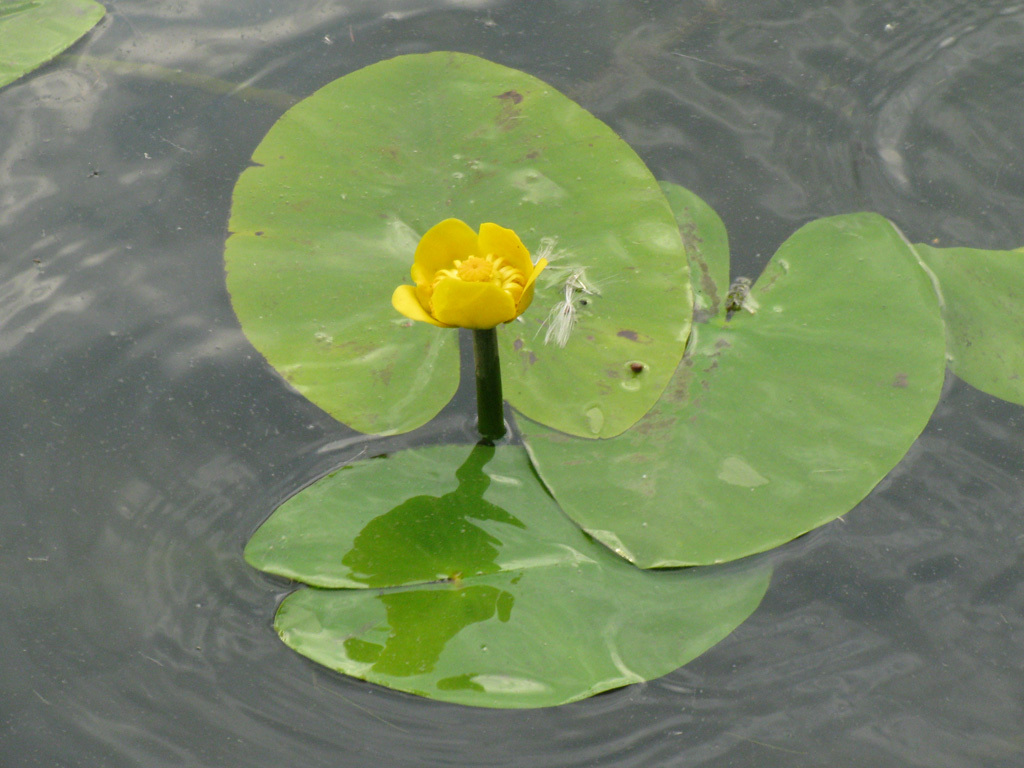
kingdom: Plantae
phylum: Tracheophyta
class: Magnoliopsida
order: Nymphaeales
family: Nymphaeaceae
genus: Nuphar
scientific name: Nuphar lutea
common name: Yellow water-lily
